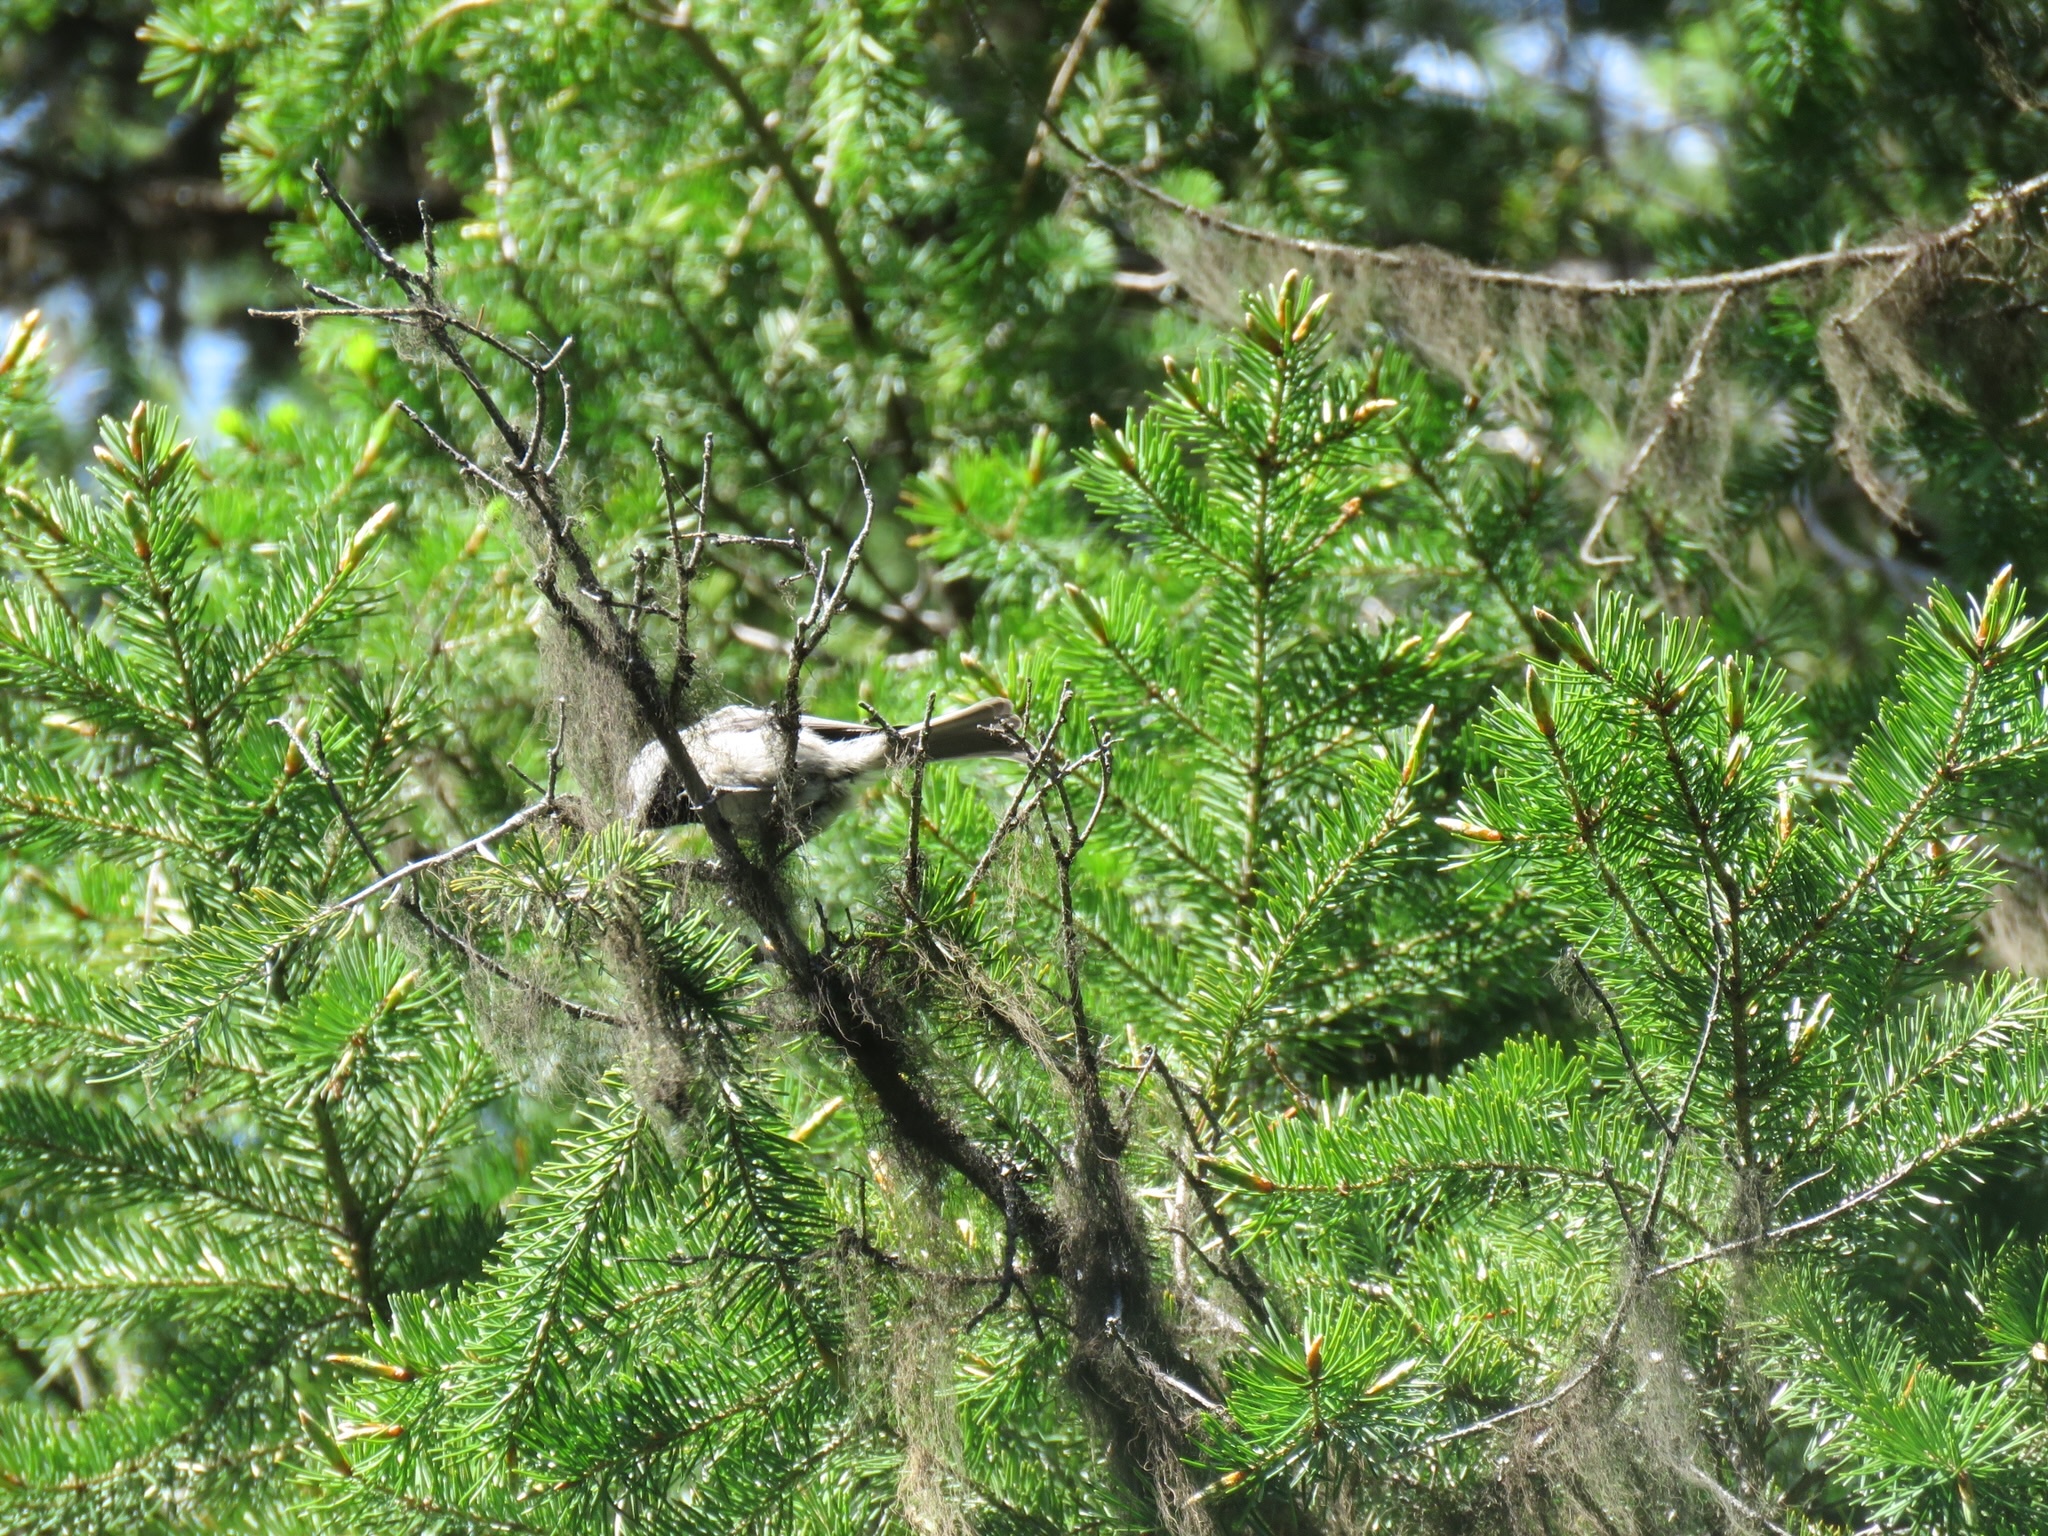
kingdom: Animalia
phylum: Chordata
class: Aves
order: Passeriformes
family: Paridae
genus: Poecile
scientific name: Poecile gambeli
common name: Mountain chickadee
